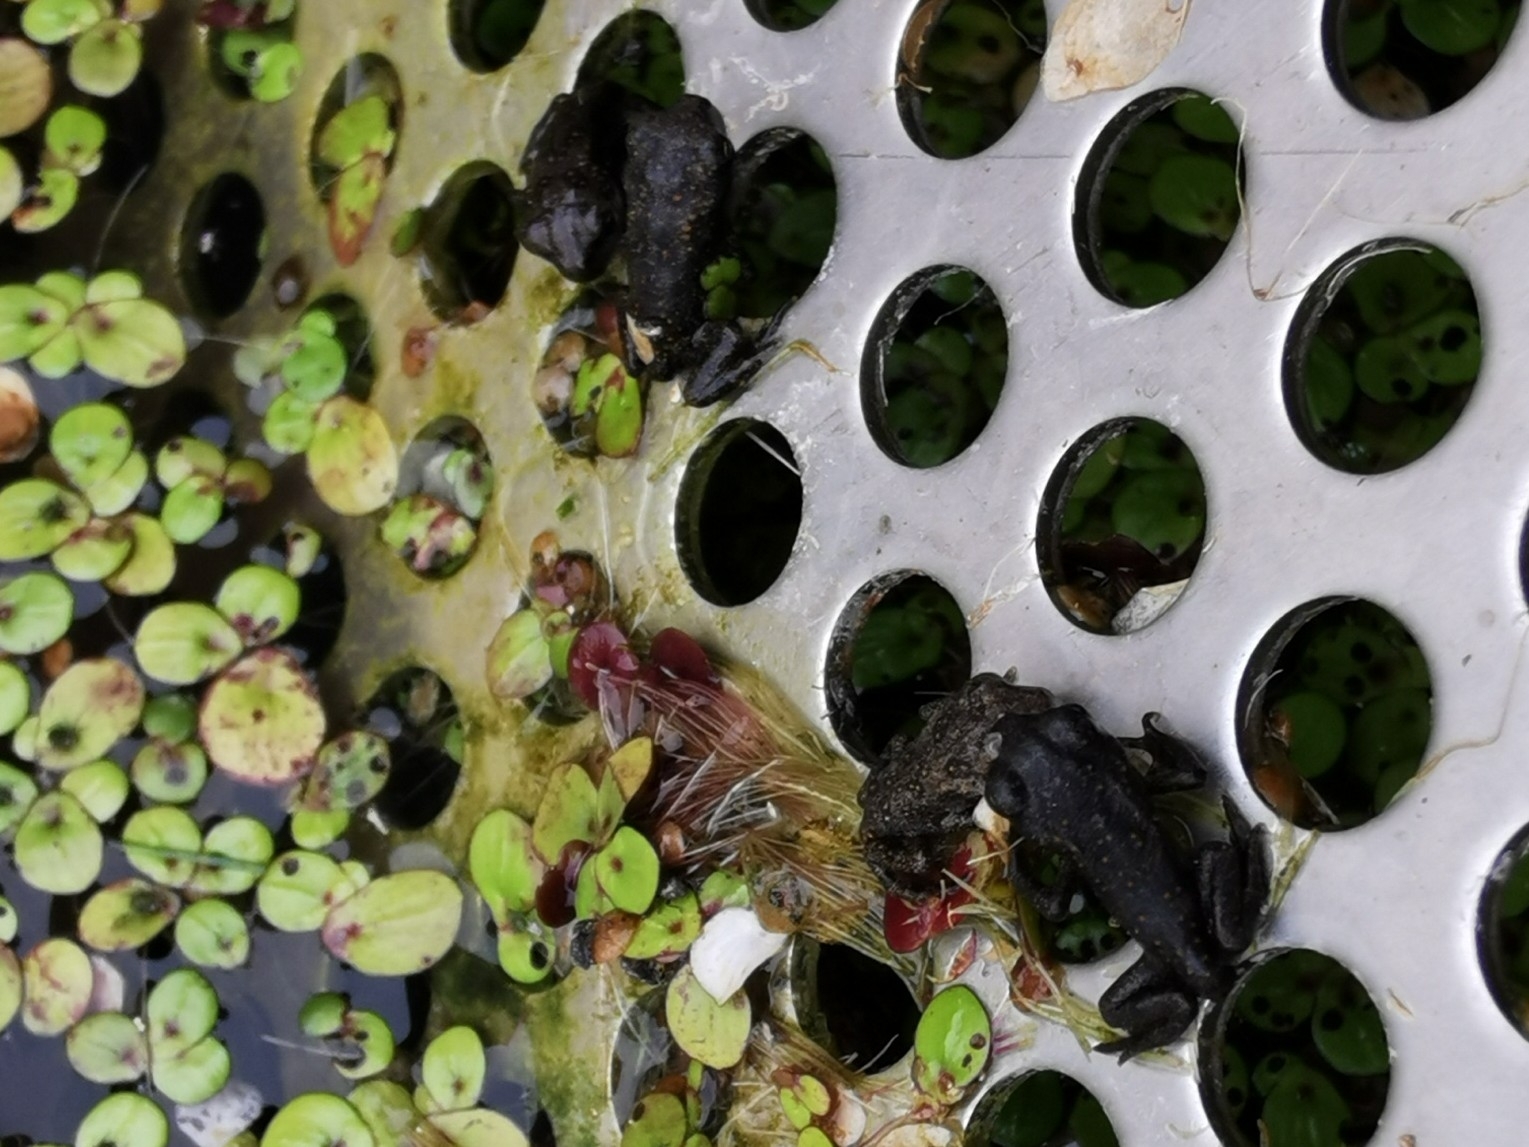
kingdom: Animalia
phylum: Chordata
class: Amphibia
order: Anura
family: Bufonidae
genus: Anaxyrus
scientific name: Anaxyrus americanus
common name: American toad
